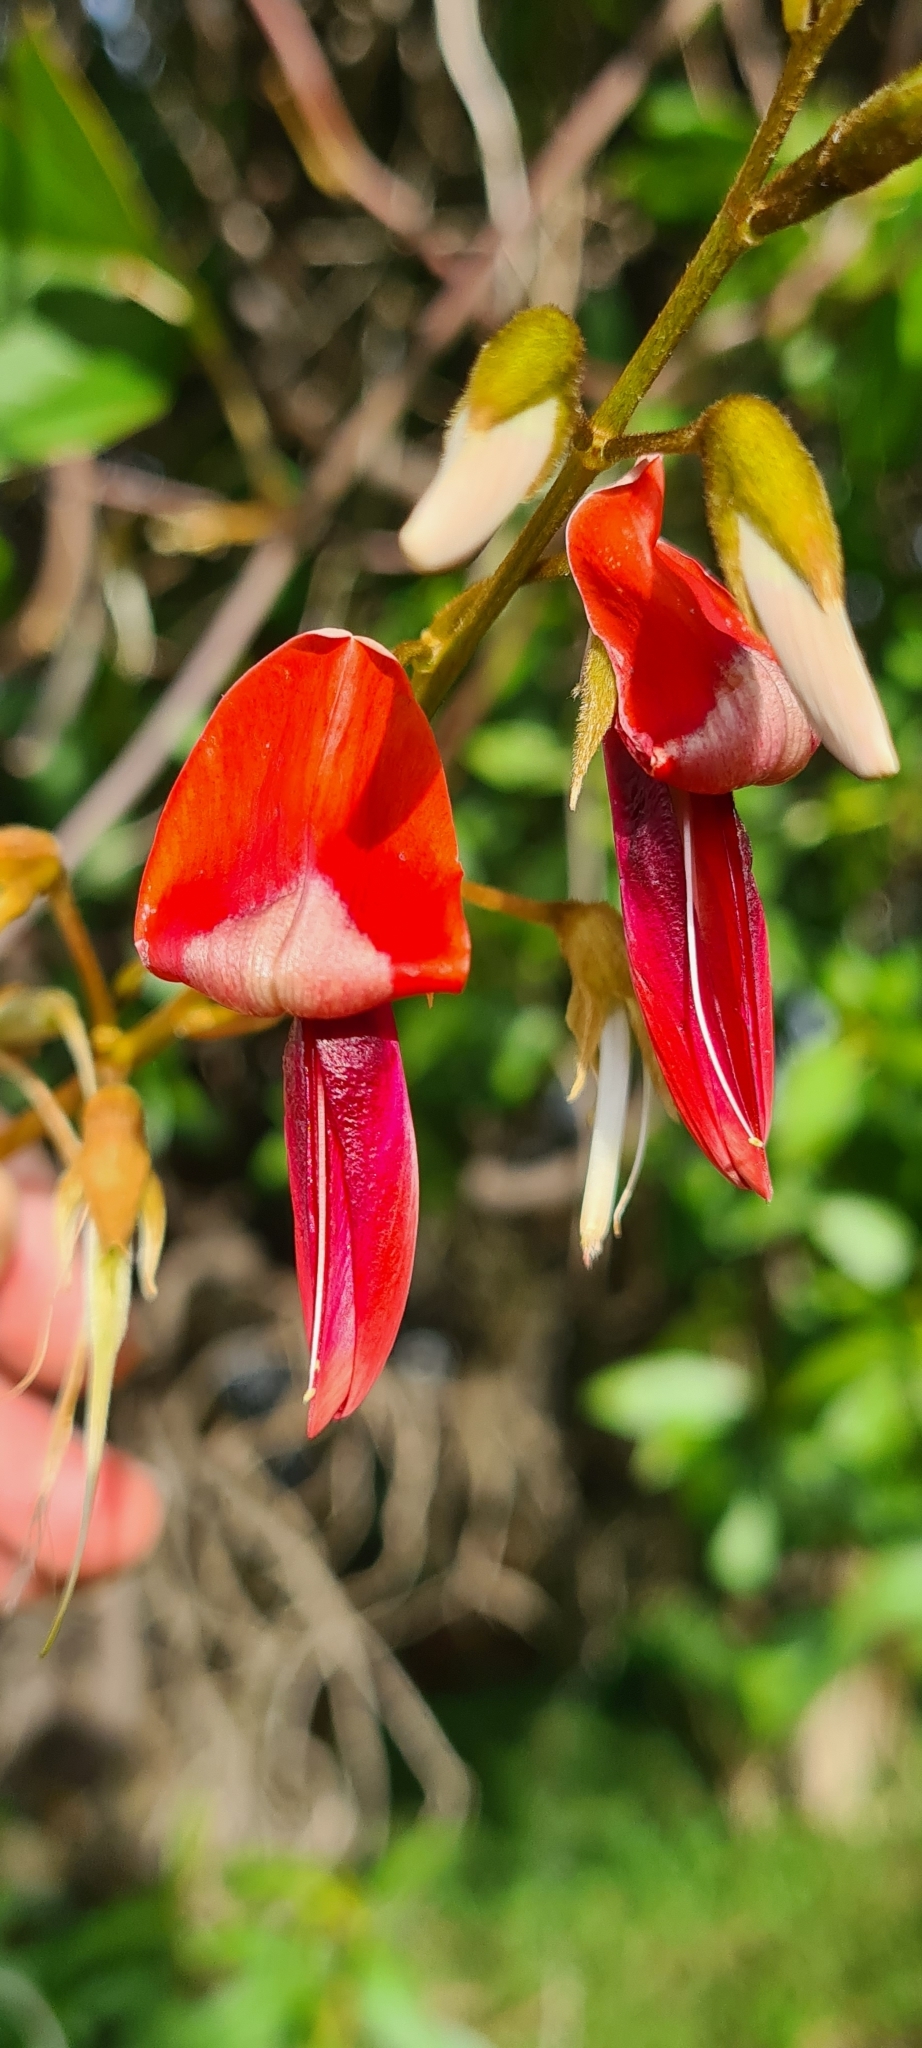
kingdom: Plantae
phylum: Tracheophyta
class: Magnoliopsida
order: Fabales
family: Fabaceae
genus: Kennedia
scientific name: Kennedia rubicunda
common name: Red kennedy-pea
